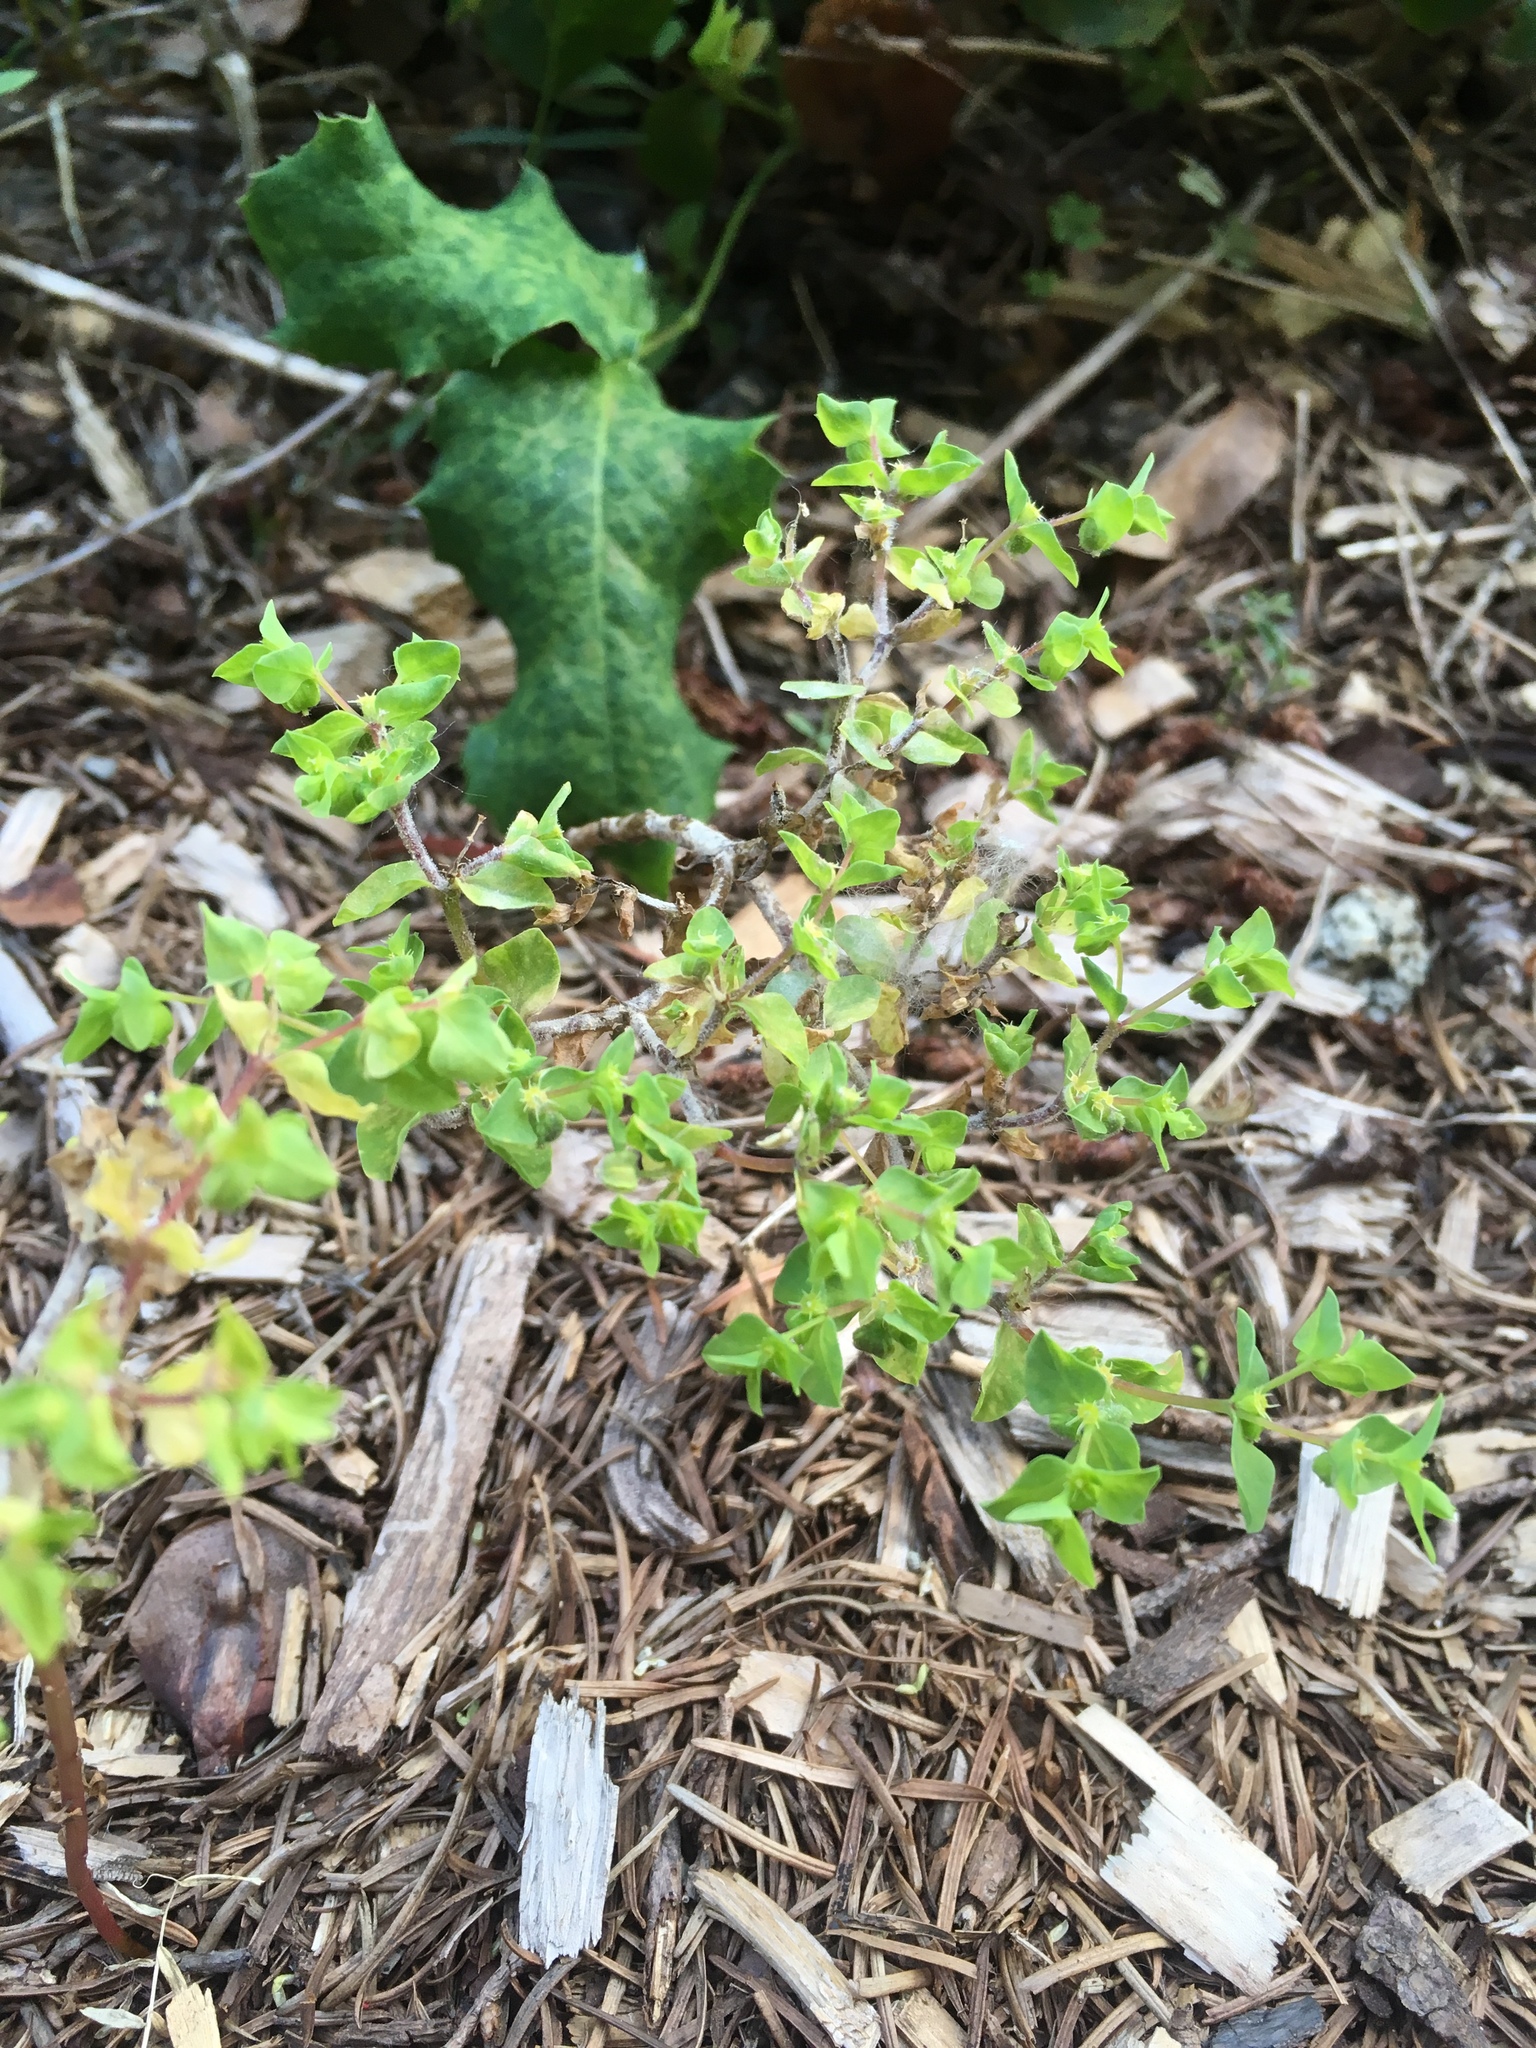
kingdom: Plantae
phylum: Tracheophyta
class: Magnoliopsida
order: Malpighiales
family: Euphorbiaceae
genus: Euphorbia
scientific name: Euphorbia peplus
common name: Petty spurge
